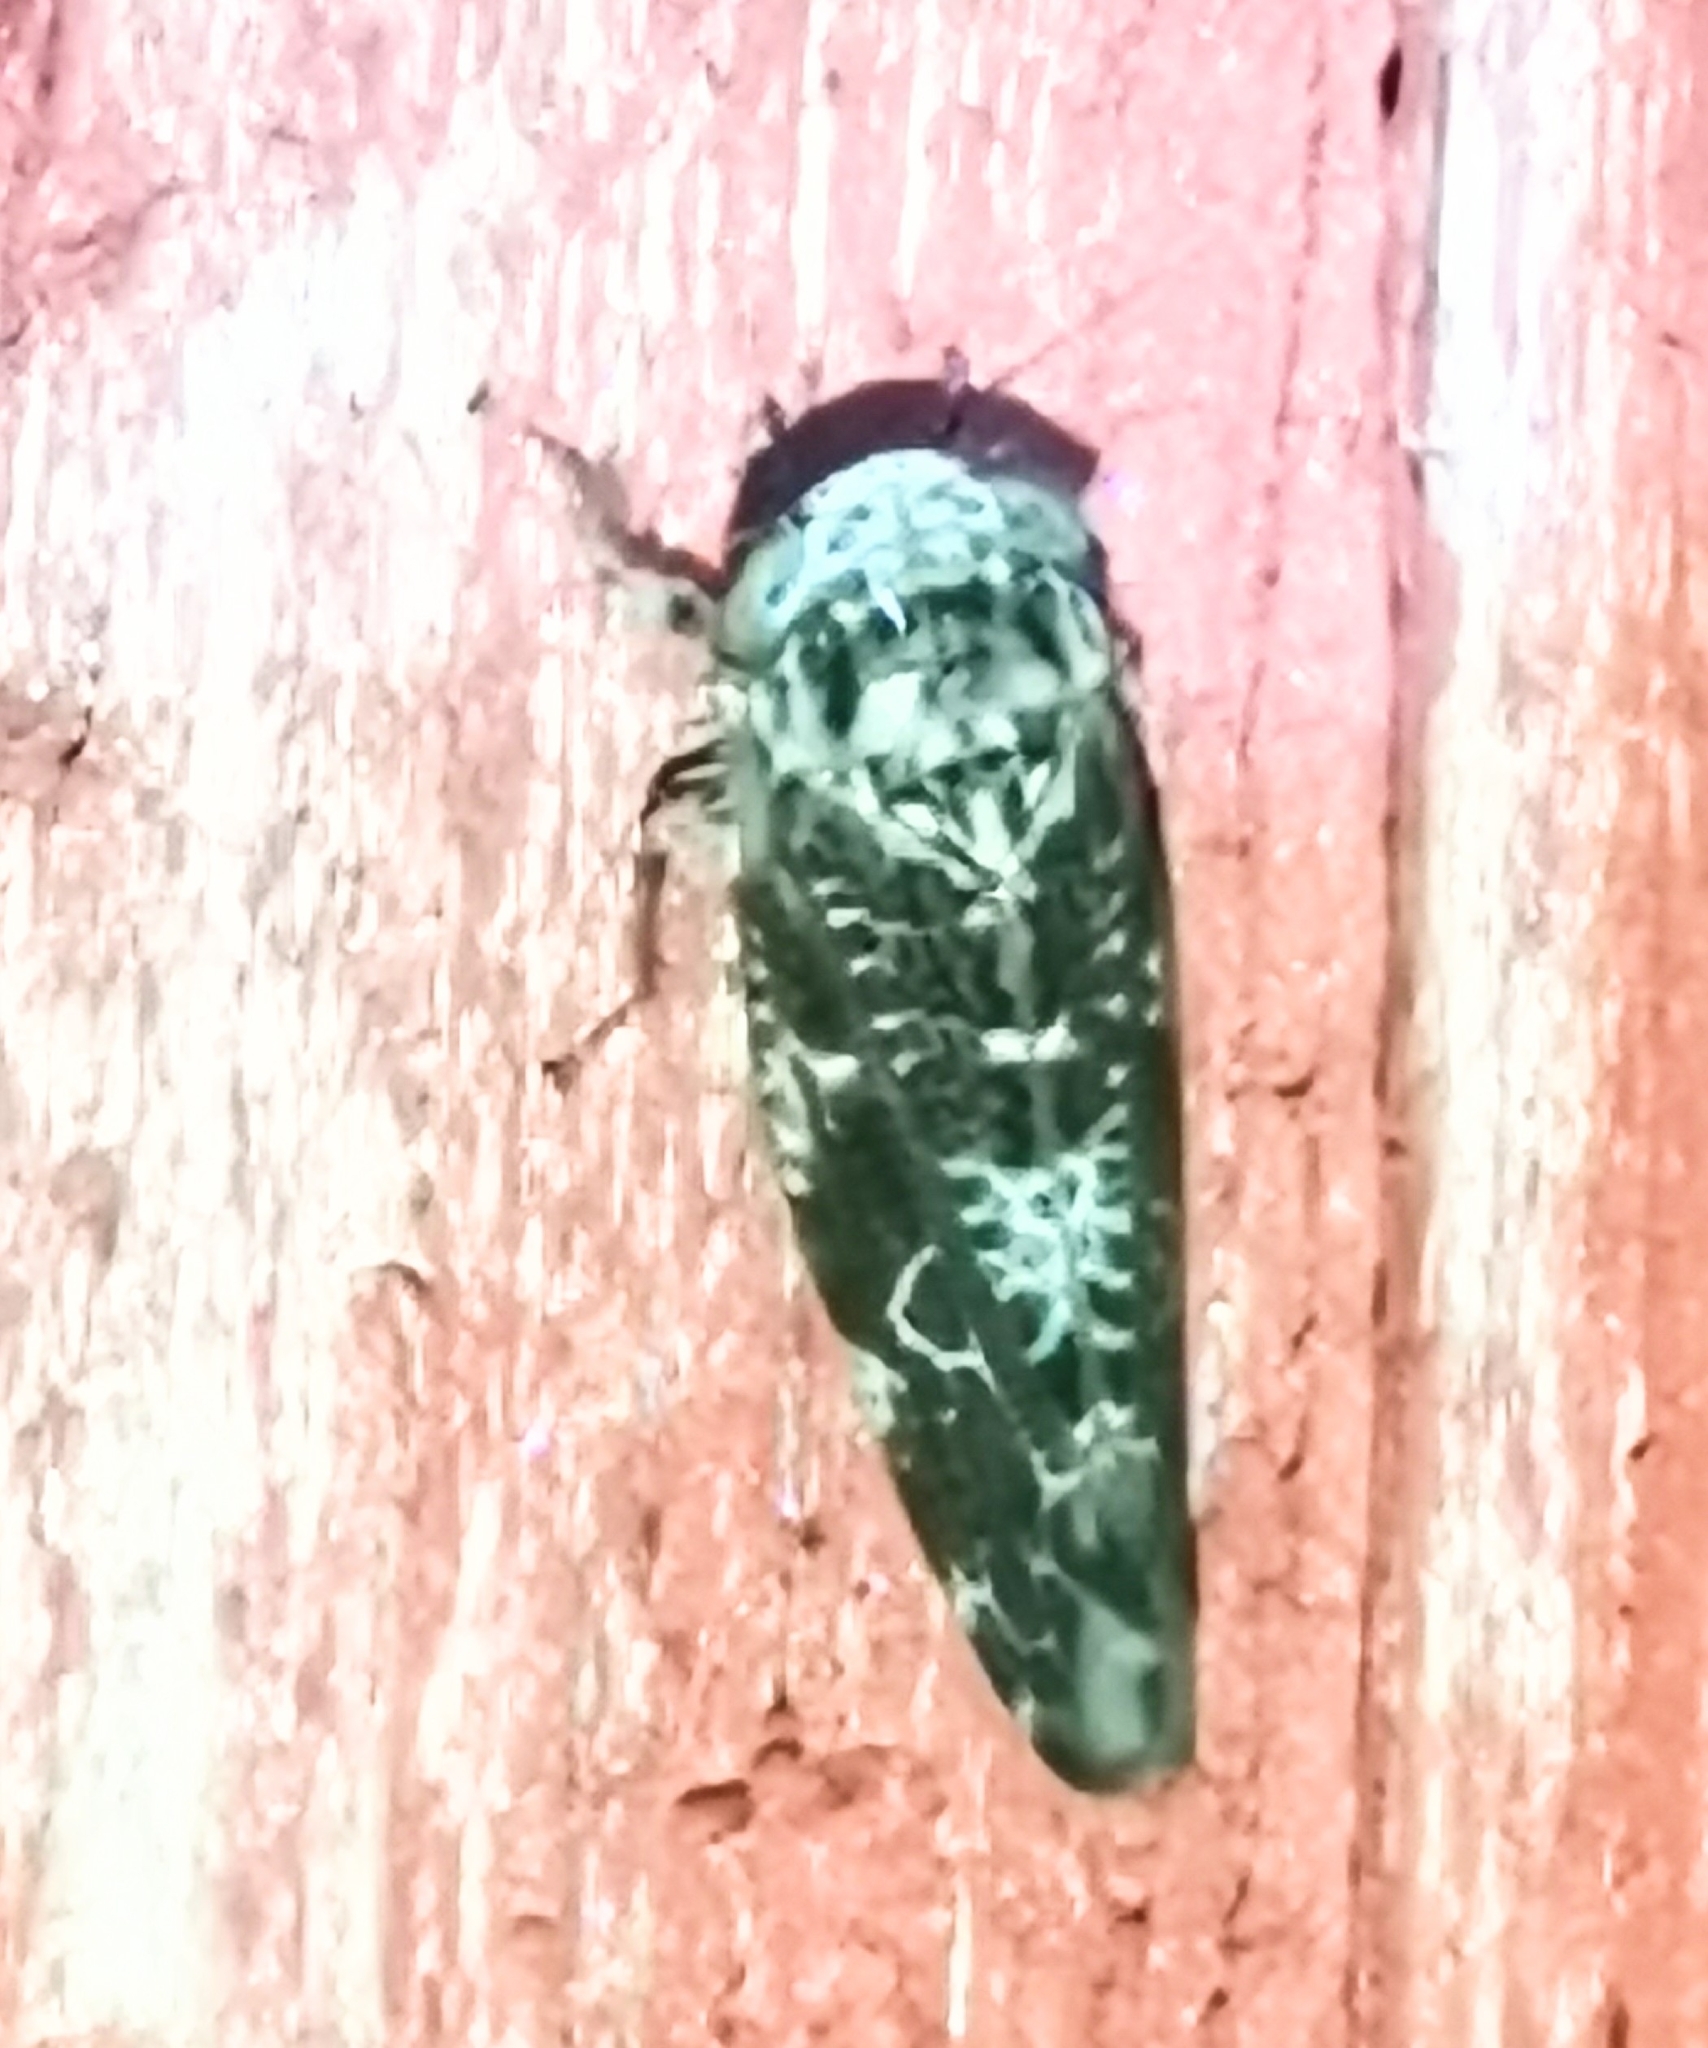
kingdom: Animalia
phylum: Arthropoda
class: Insecta
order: Hemiptera
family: Cicadellidae
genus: Allygus
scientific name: Allygus mixtus
